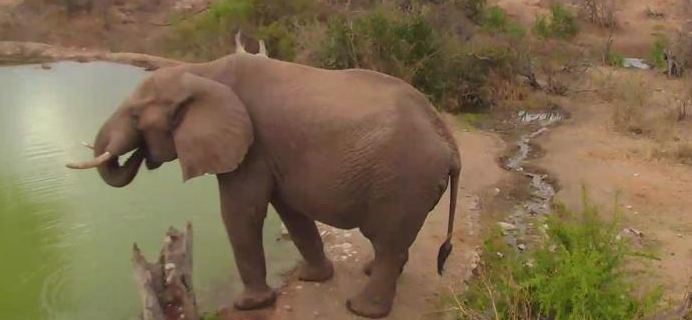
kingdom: Animalia
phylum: Chordata
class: Mammalia
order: Proboscidea
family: Elephantidae
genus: Loxodonta
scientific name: Loxodonta africana
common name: African elephant
